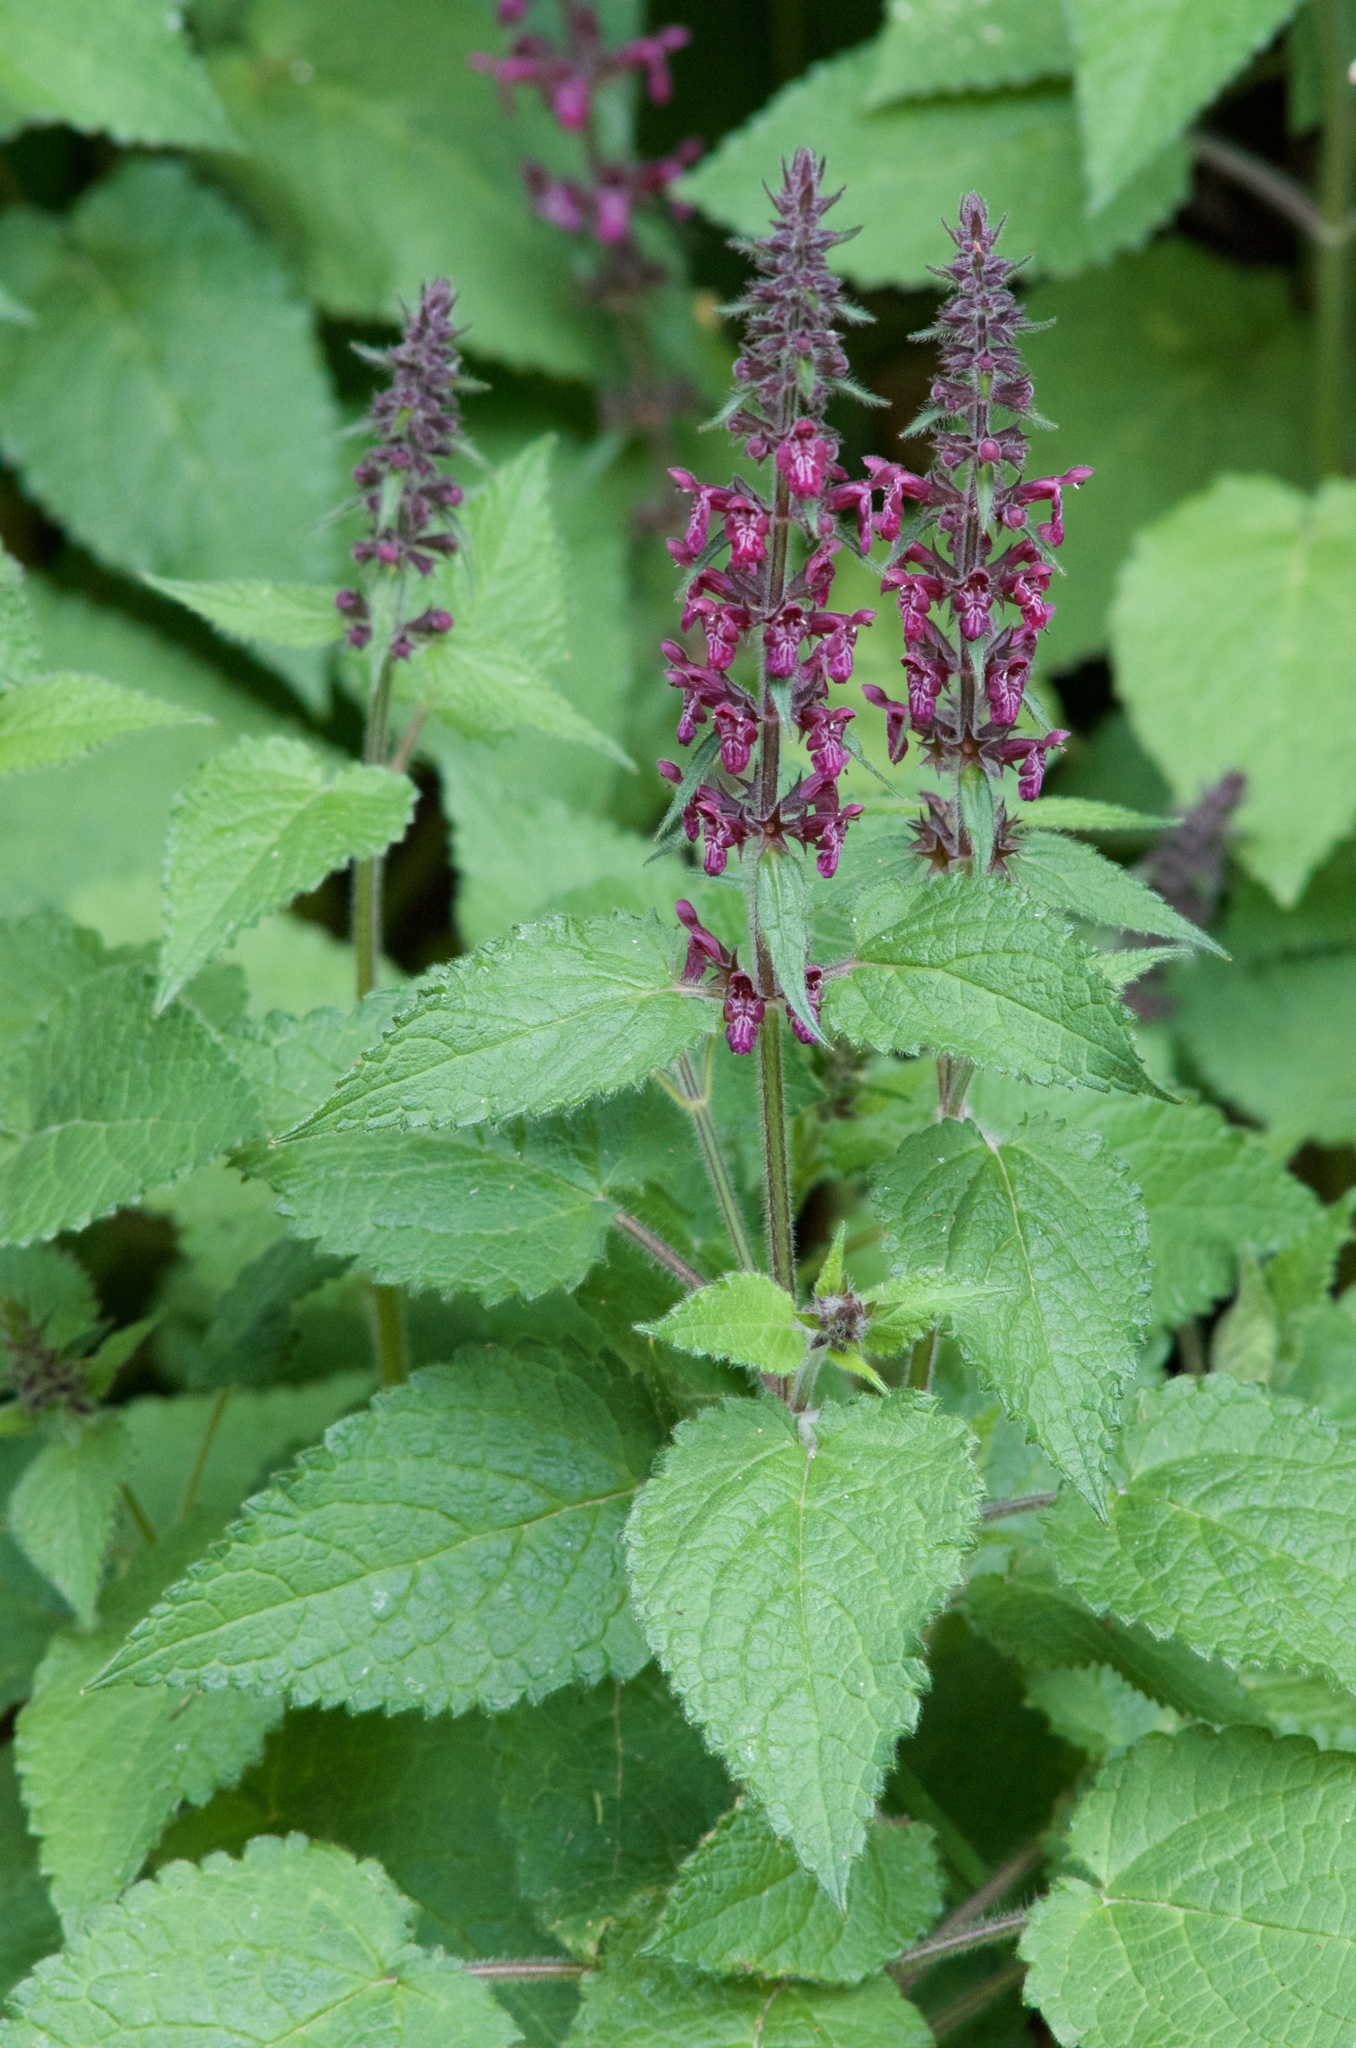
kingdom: Plantae
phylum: Tracheophyta
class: Magnoliopsida
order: Lamiales
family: Lamiaceae
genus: Stachys
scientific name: Stachys sylvatica
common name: Hedge woundwort
